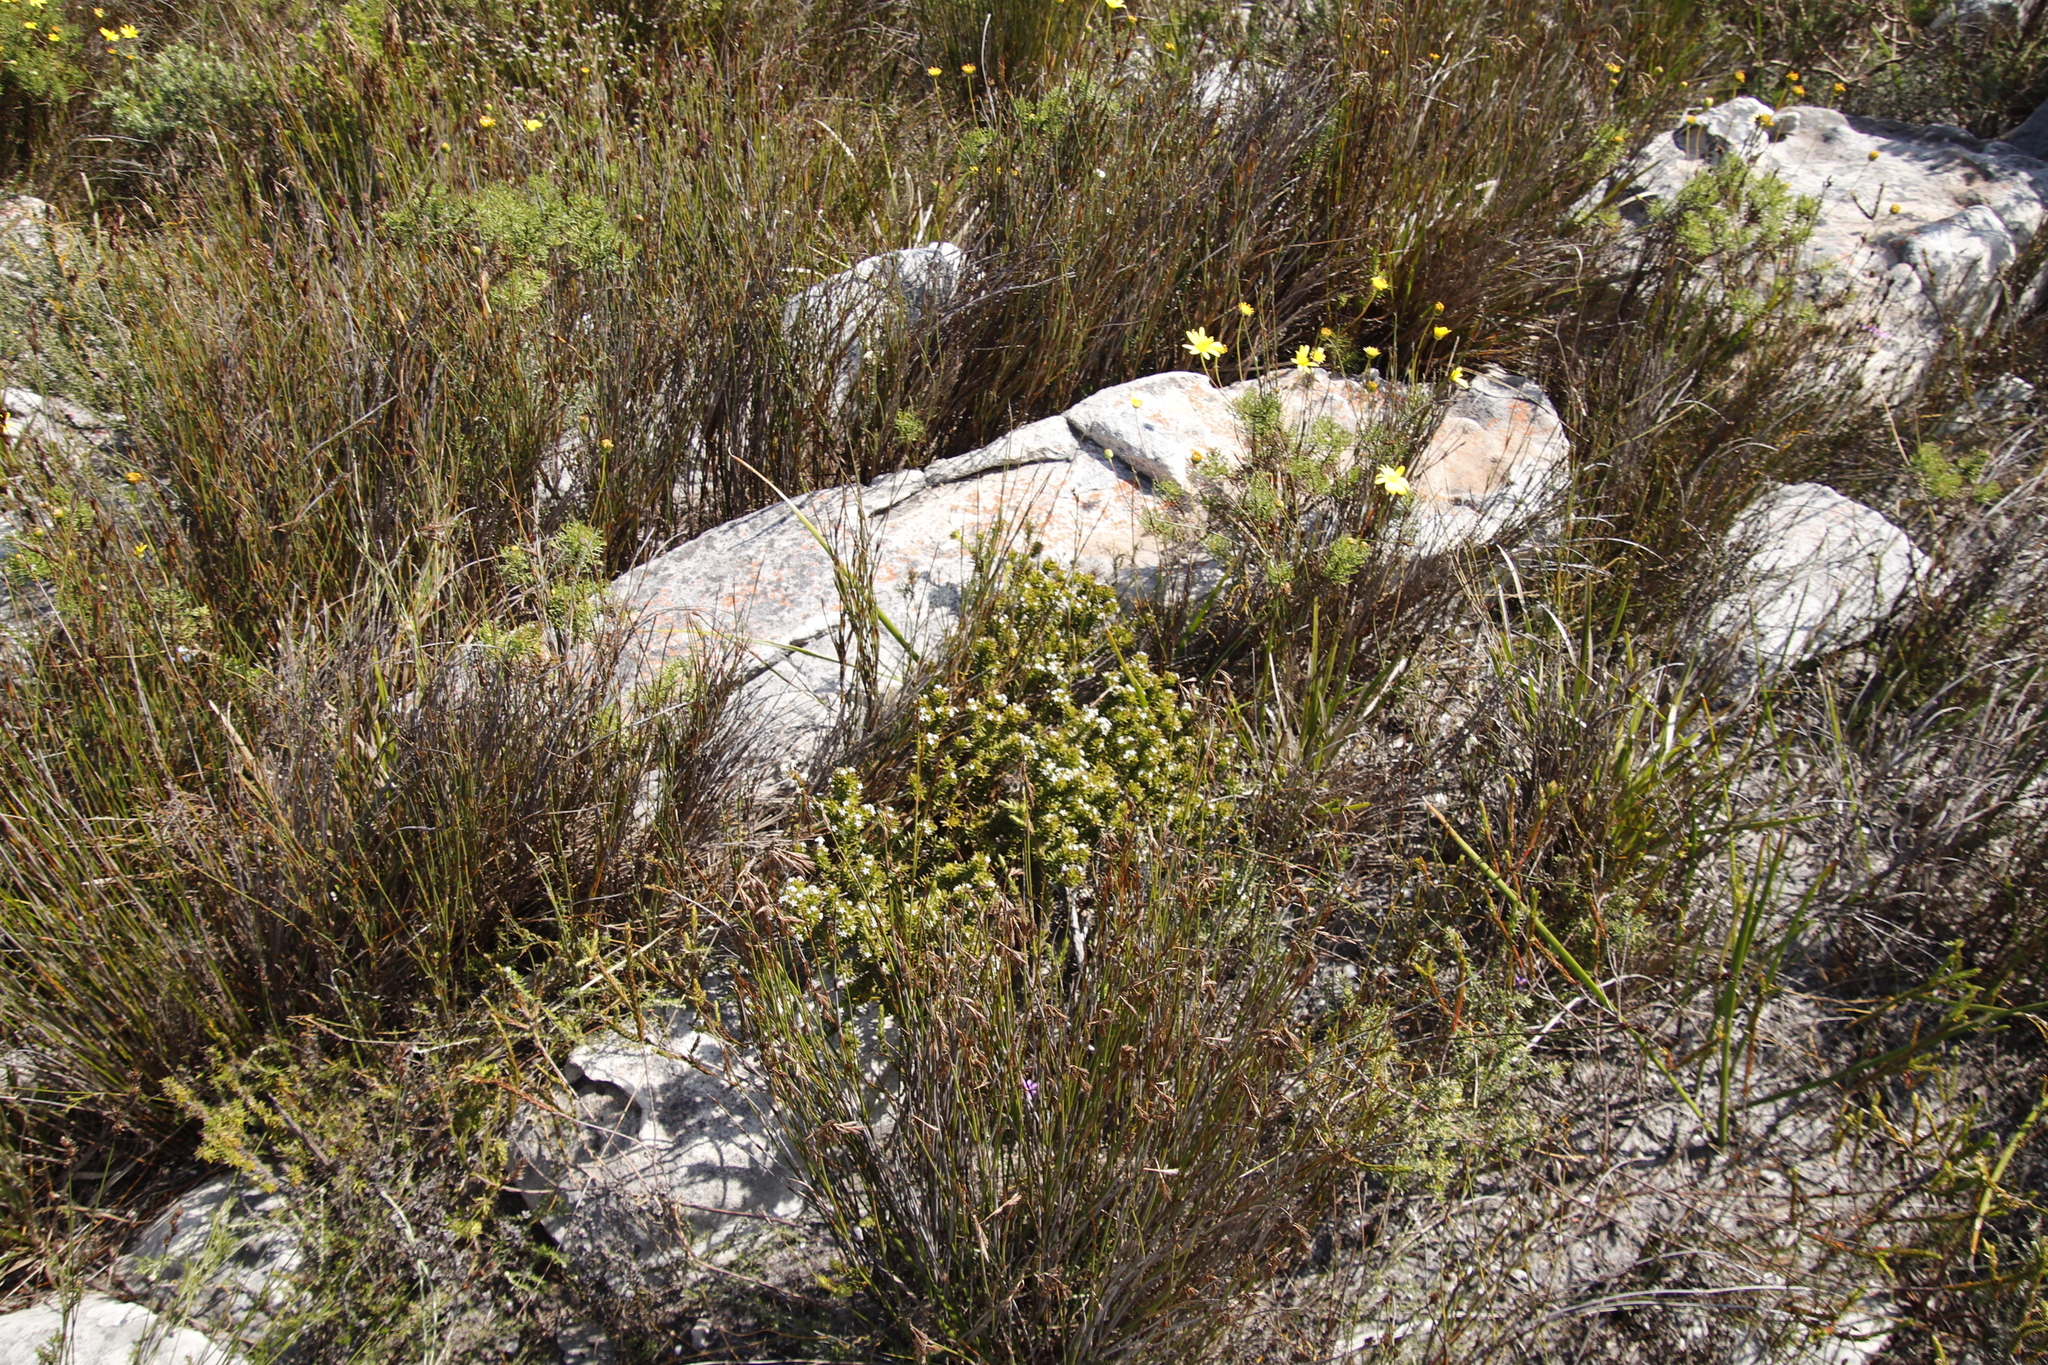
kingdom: Plantae
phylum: Tracheophyta
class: Magnoliopsida
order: Santalales
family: Thesiaceae
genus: Thesium
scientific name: Thesium viridifolium
